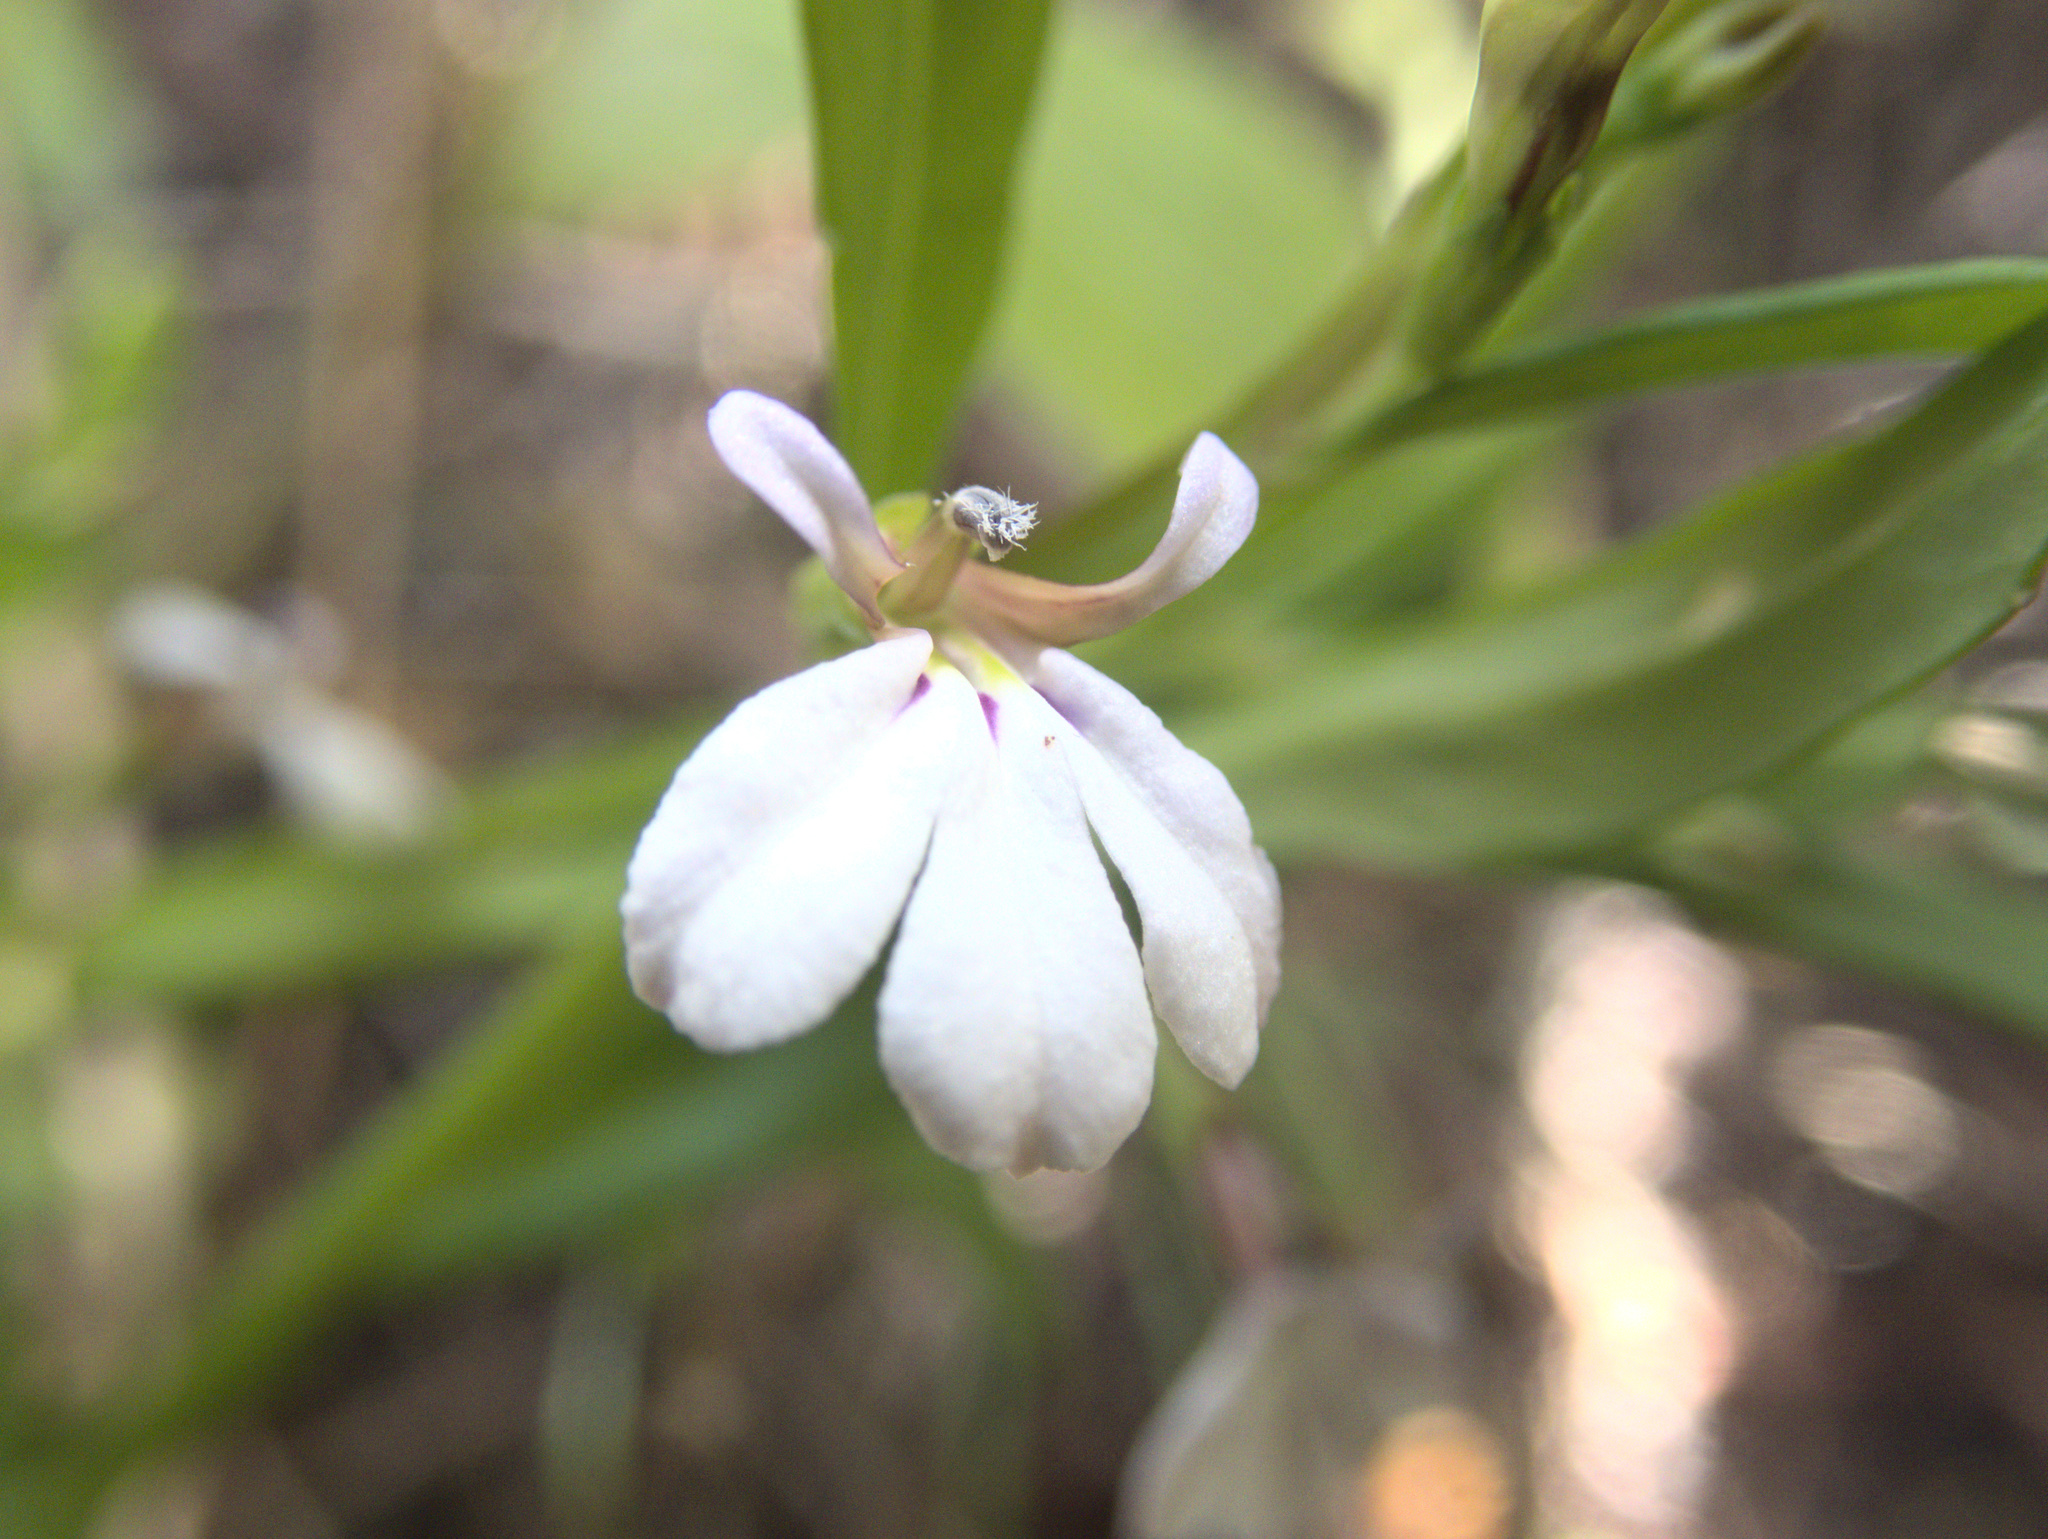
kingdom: Plantae
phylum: Tracheophyta
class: Magnoliopsida
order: Asterales
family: Campanulaceae
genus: Lobelia
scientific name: Lobelia anceps
